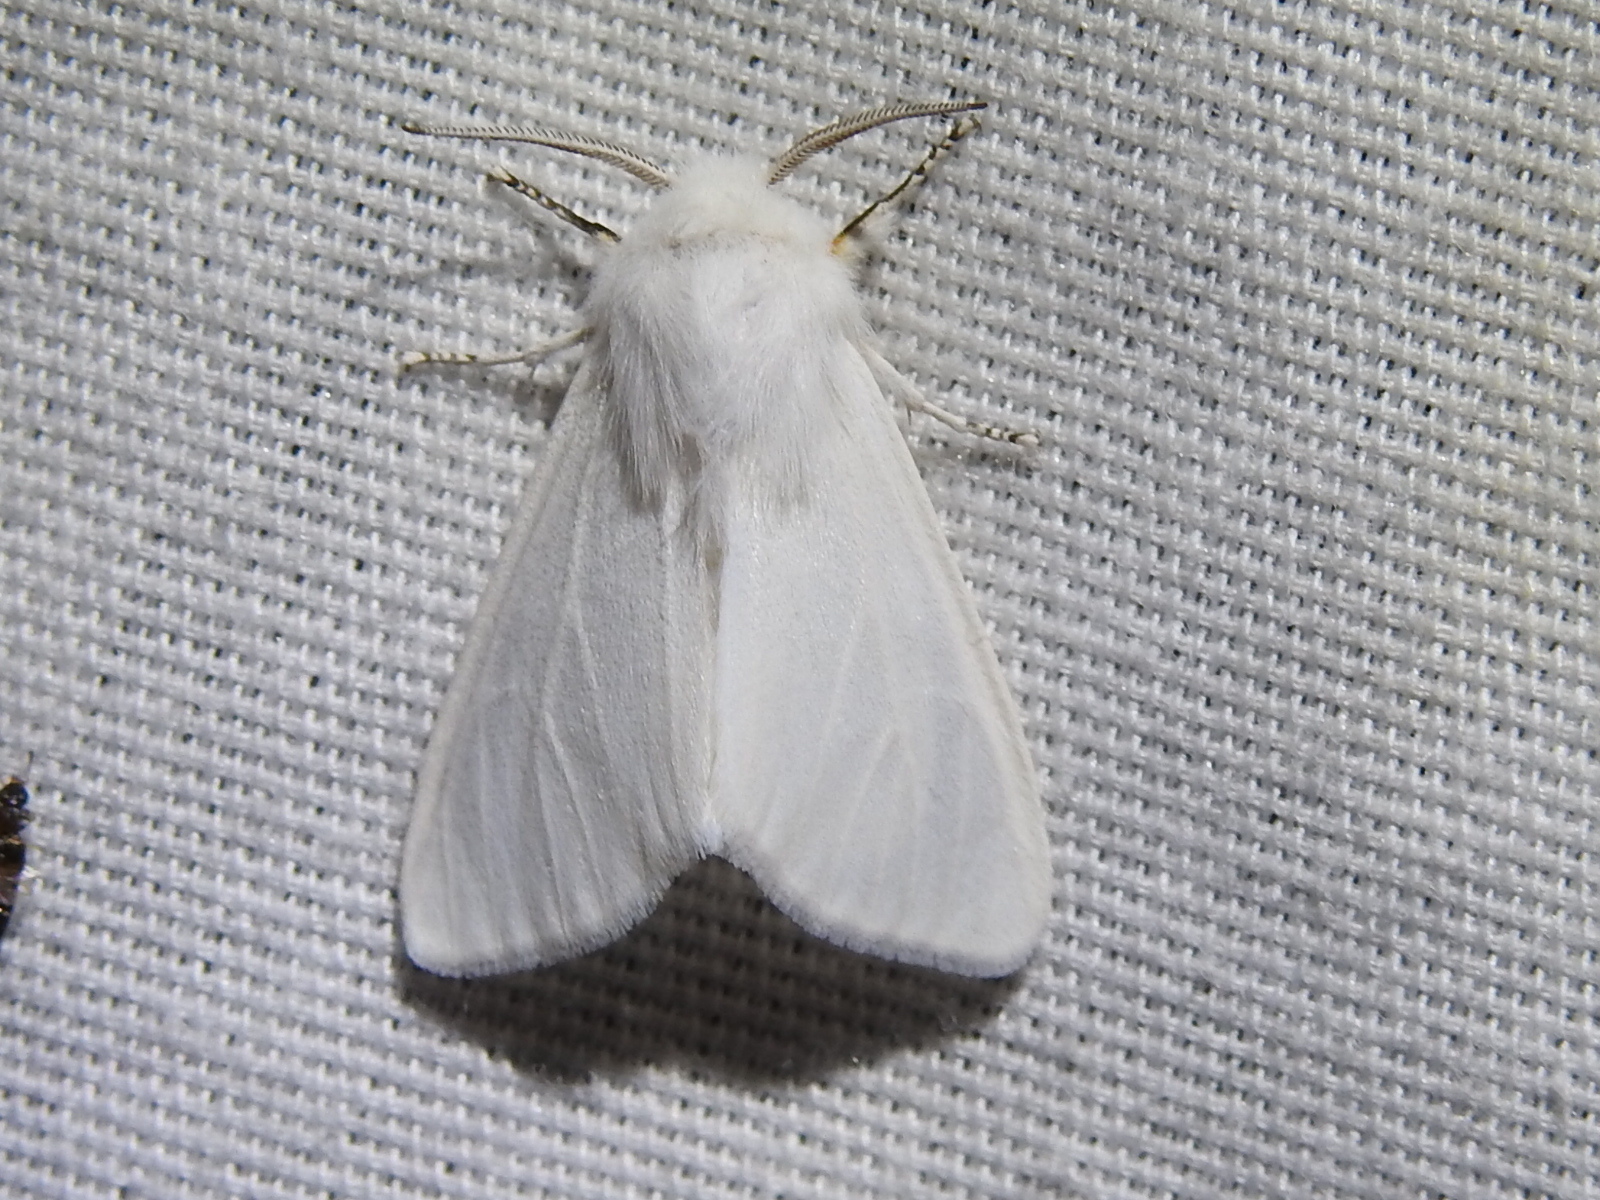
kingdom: Animalia
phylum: Arthropoda
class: Insecta
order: Lepidoptera
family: Erebidae
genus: Hyphantria
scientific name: Hyphantria cunea
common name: American white moth
